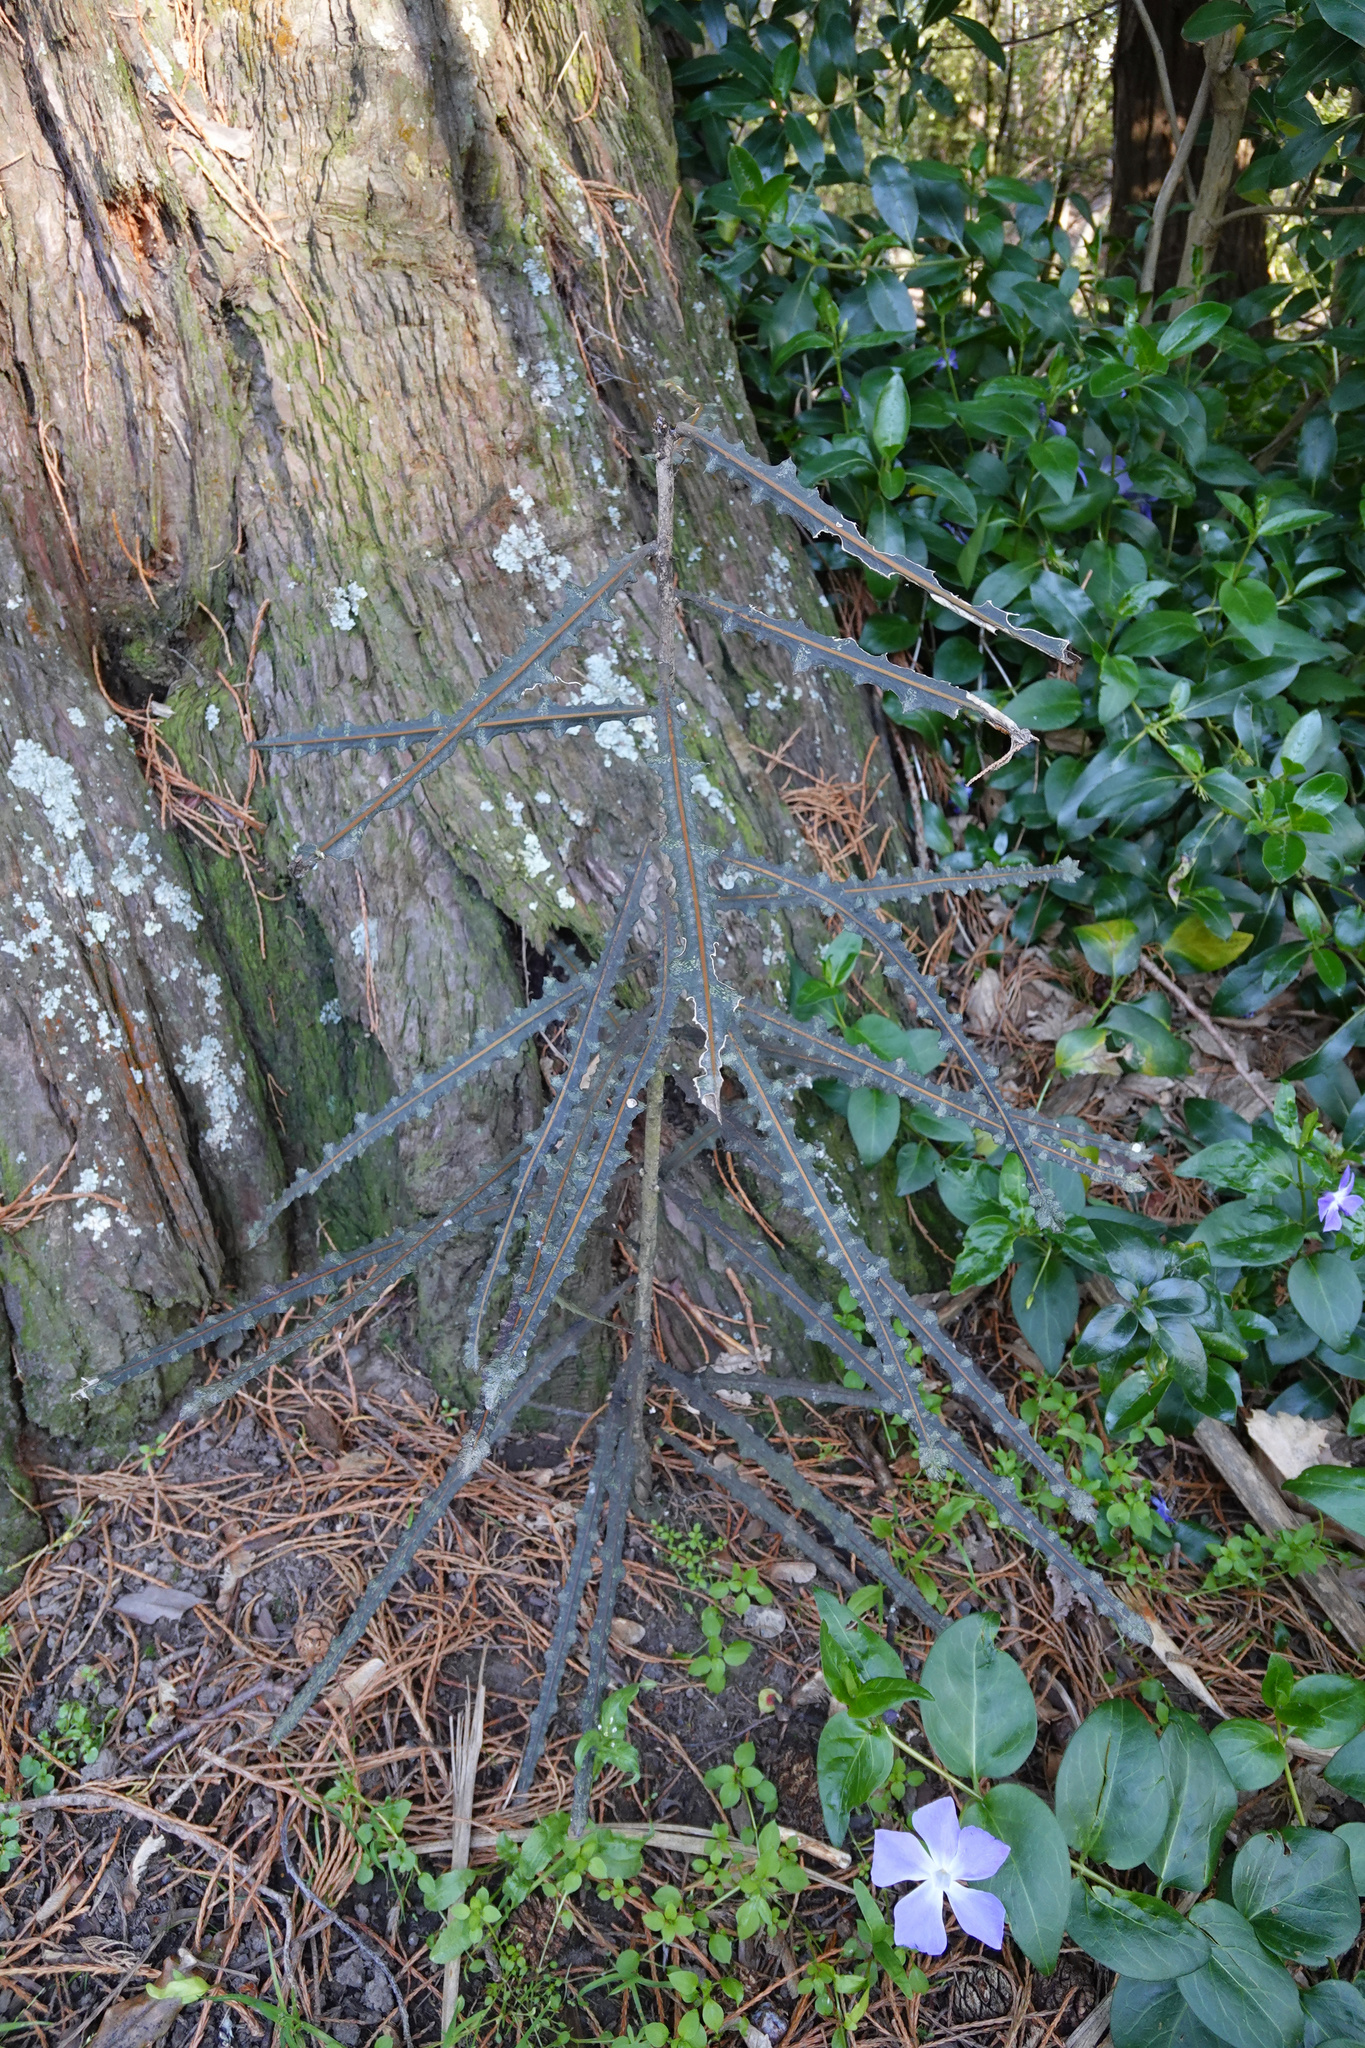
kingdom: Plantae
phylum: Tracheophyta
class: Magnoliopsida
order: Apiales
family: Araliaceae
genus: Pseudopanax
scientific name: Pseudopanax ferox
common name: Fierce lancewood
